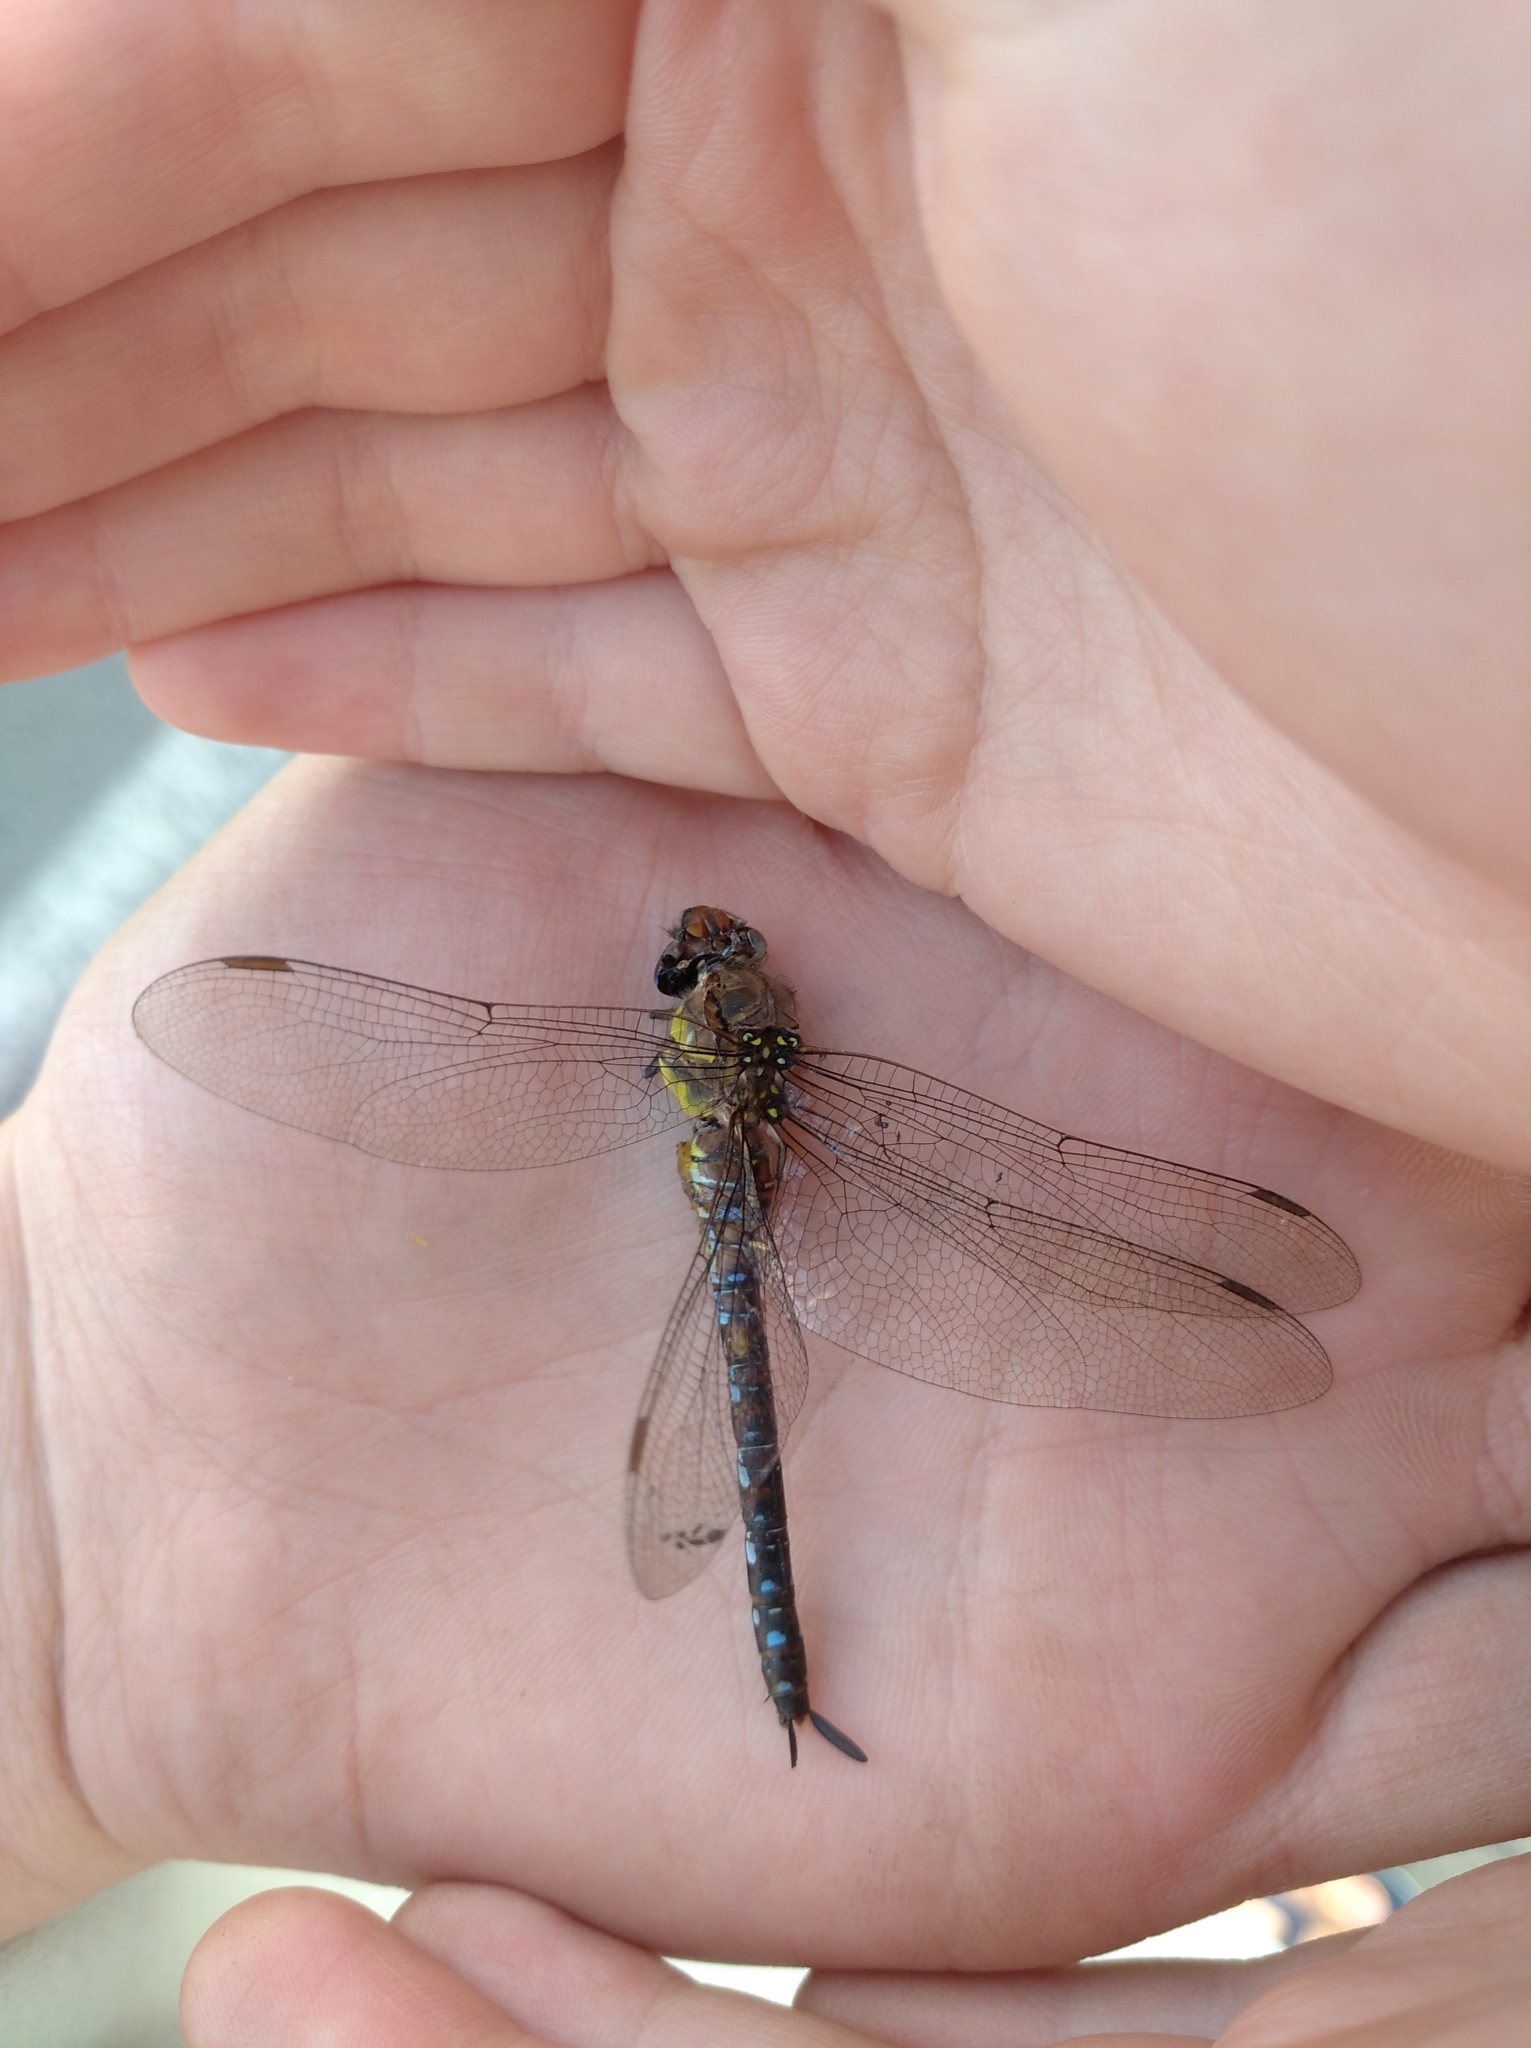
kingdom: Animalia
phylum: Arthropoda
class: Insecta
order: Odonata
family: Aeshnidae
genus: Aeshna
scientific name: Aeshna mixta
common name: Migrant hawker
